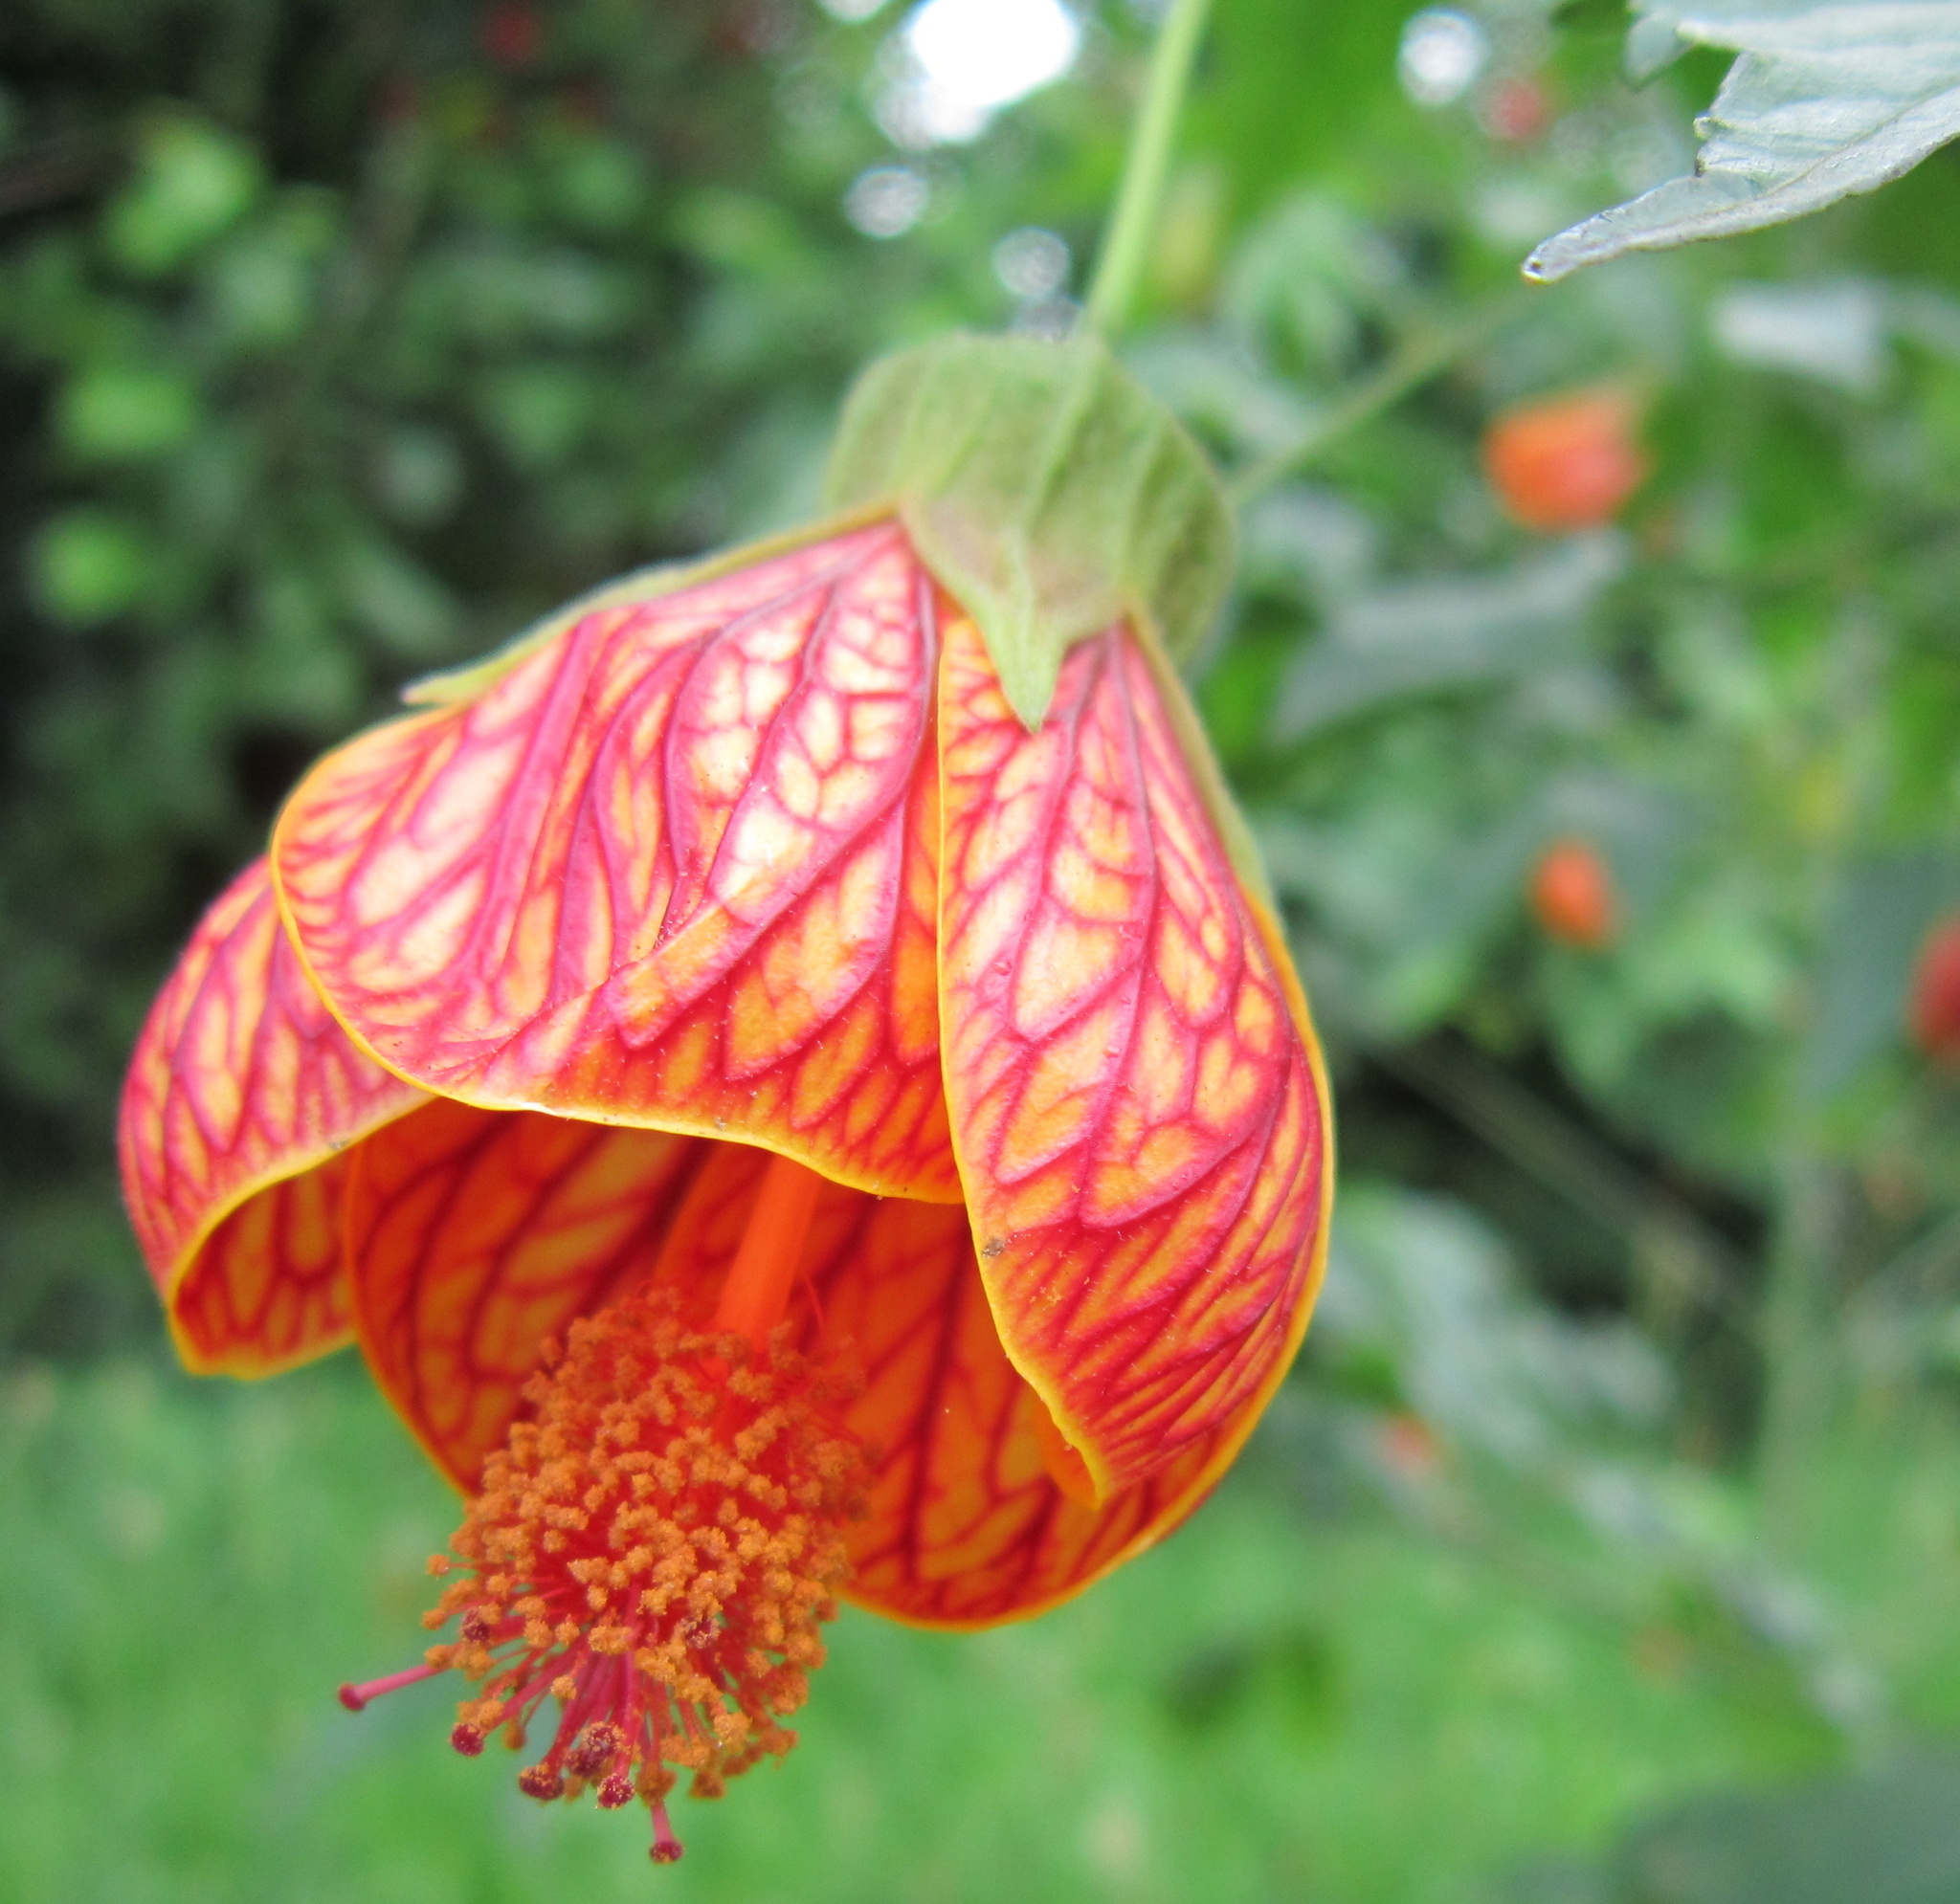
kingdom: Plantae
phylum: Tracheophyta
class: Magnoliopsida
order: Malvales
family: Malvaceae
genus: Callianthe
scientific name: Callianthe picta
